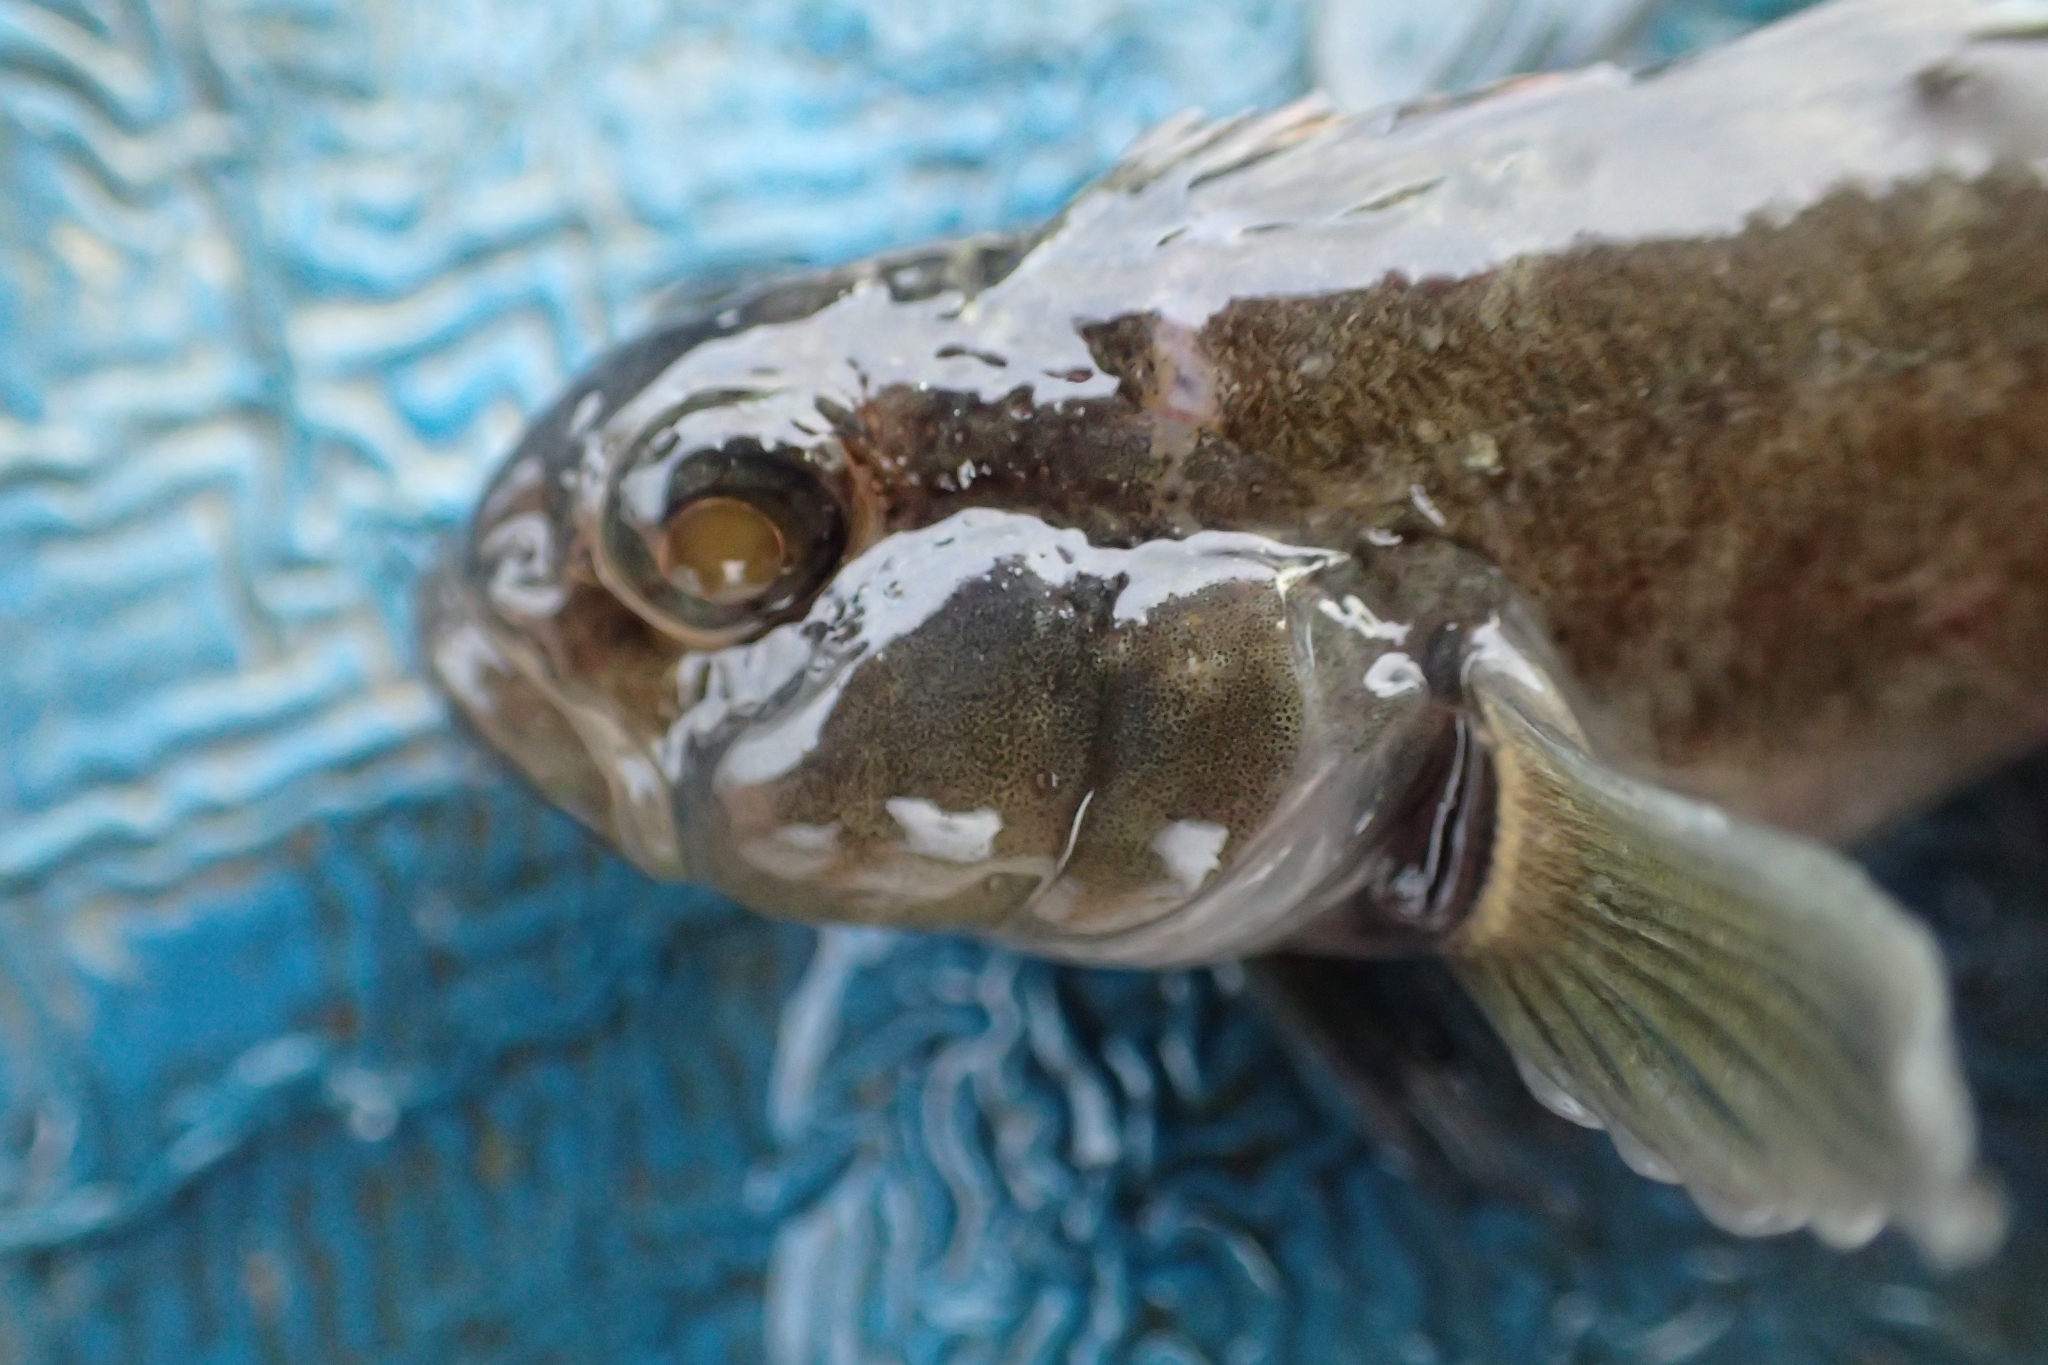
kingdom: Animalia
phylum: Chordata
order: Perciformes
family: Tripterygiidae
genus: Forsterygion
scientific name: Forsterygion gymnotum
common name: Multifid-tentacled robust triplefin
